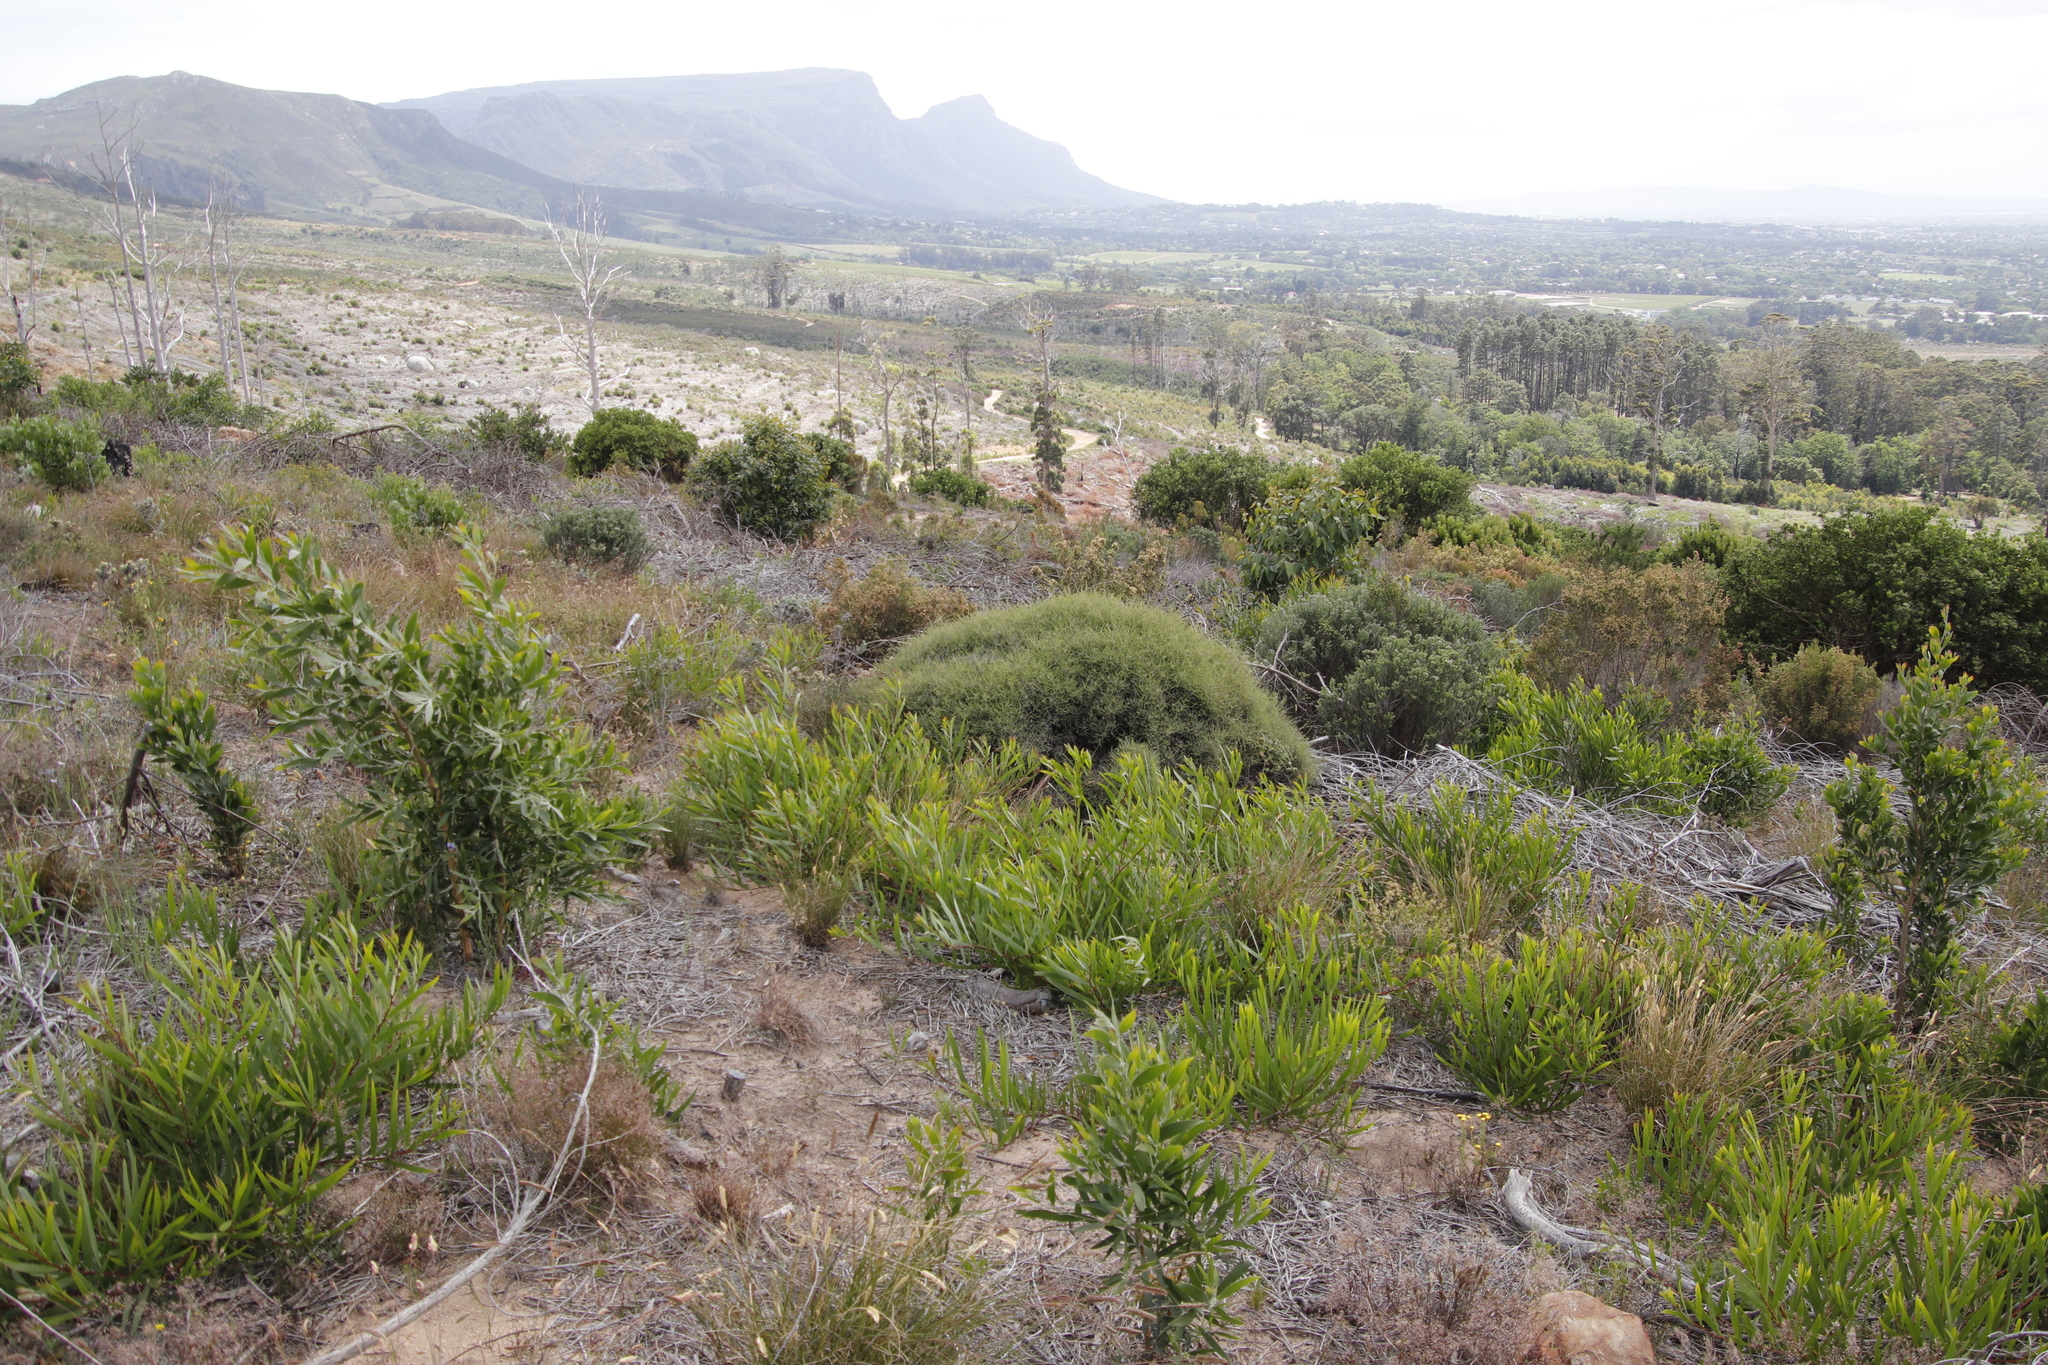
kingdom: Plantae
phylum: Tracheophyta
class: Magnoliopsida
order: Asterales
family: Asteraceae
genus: Myrovernix
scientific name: Myrovernix scaber
